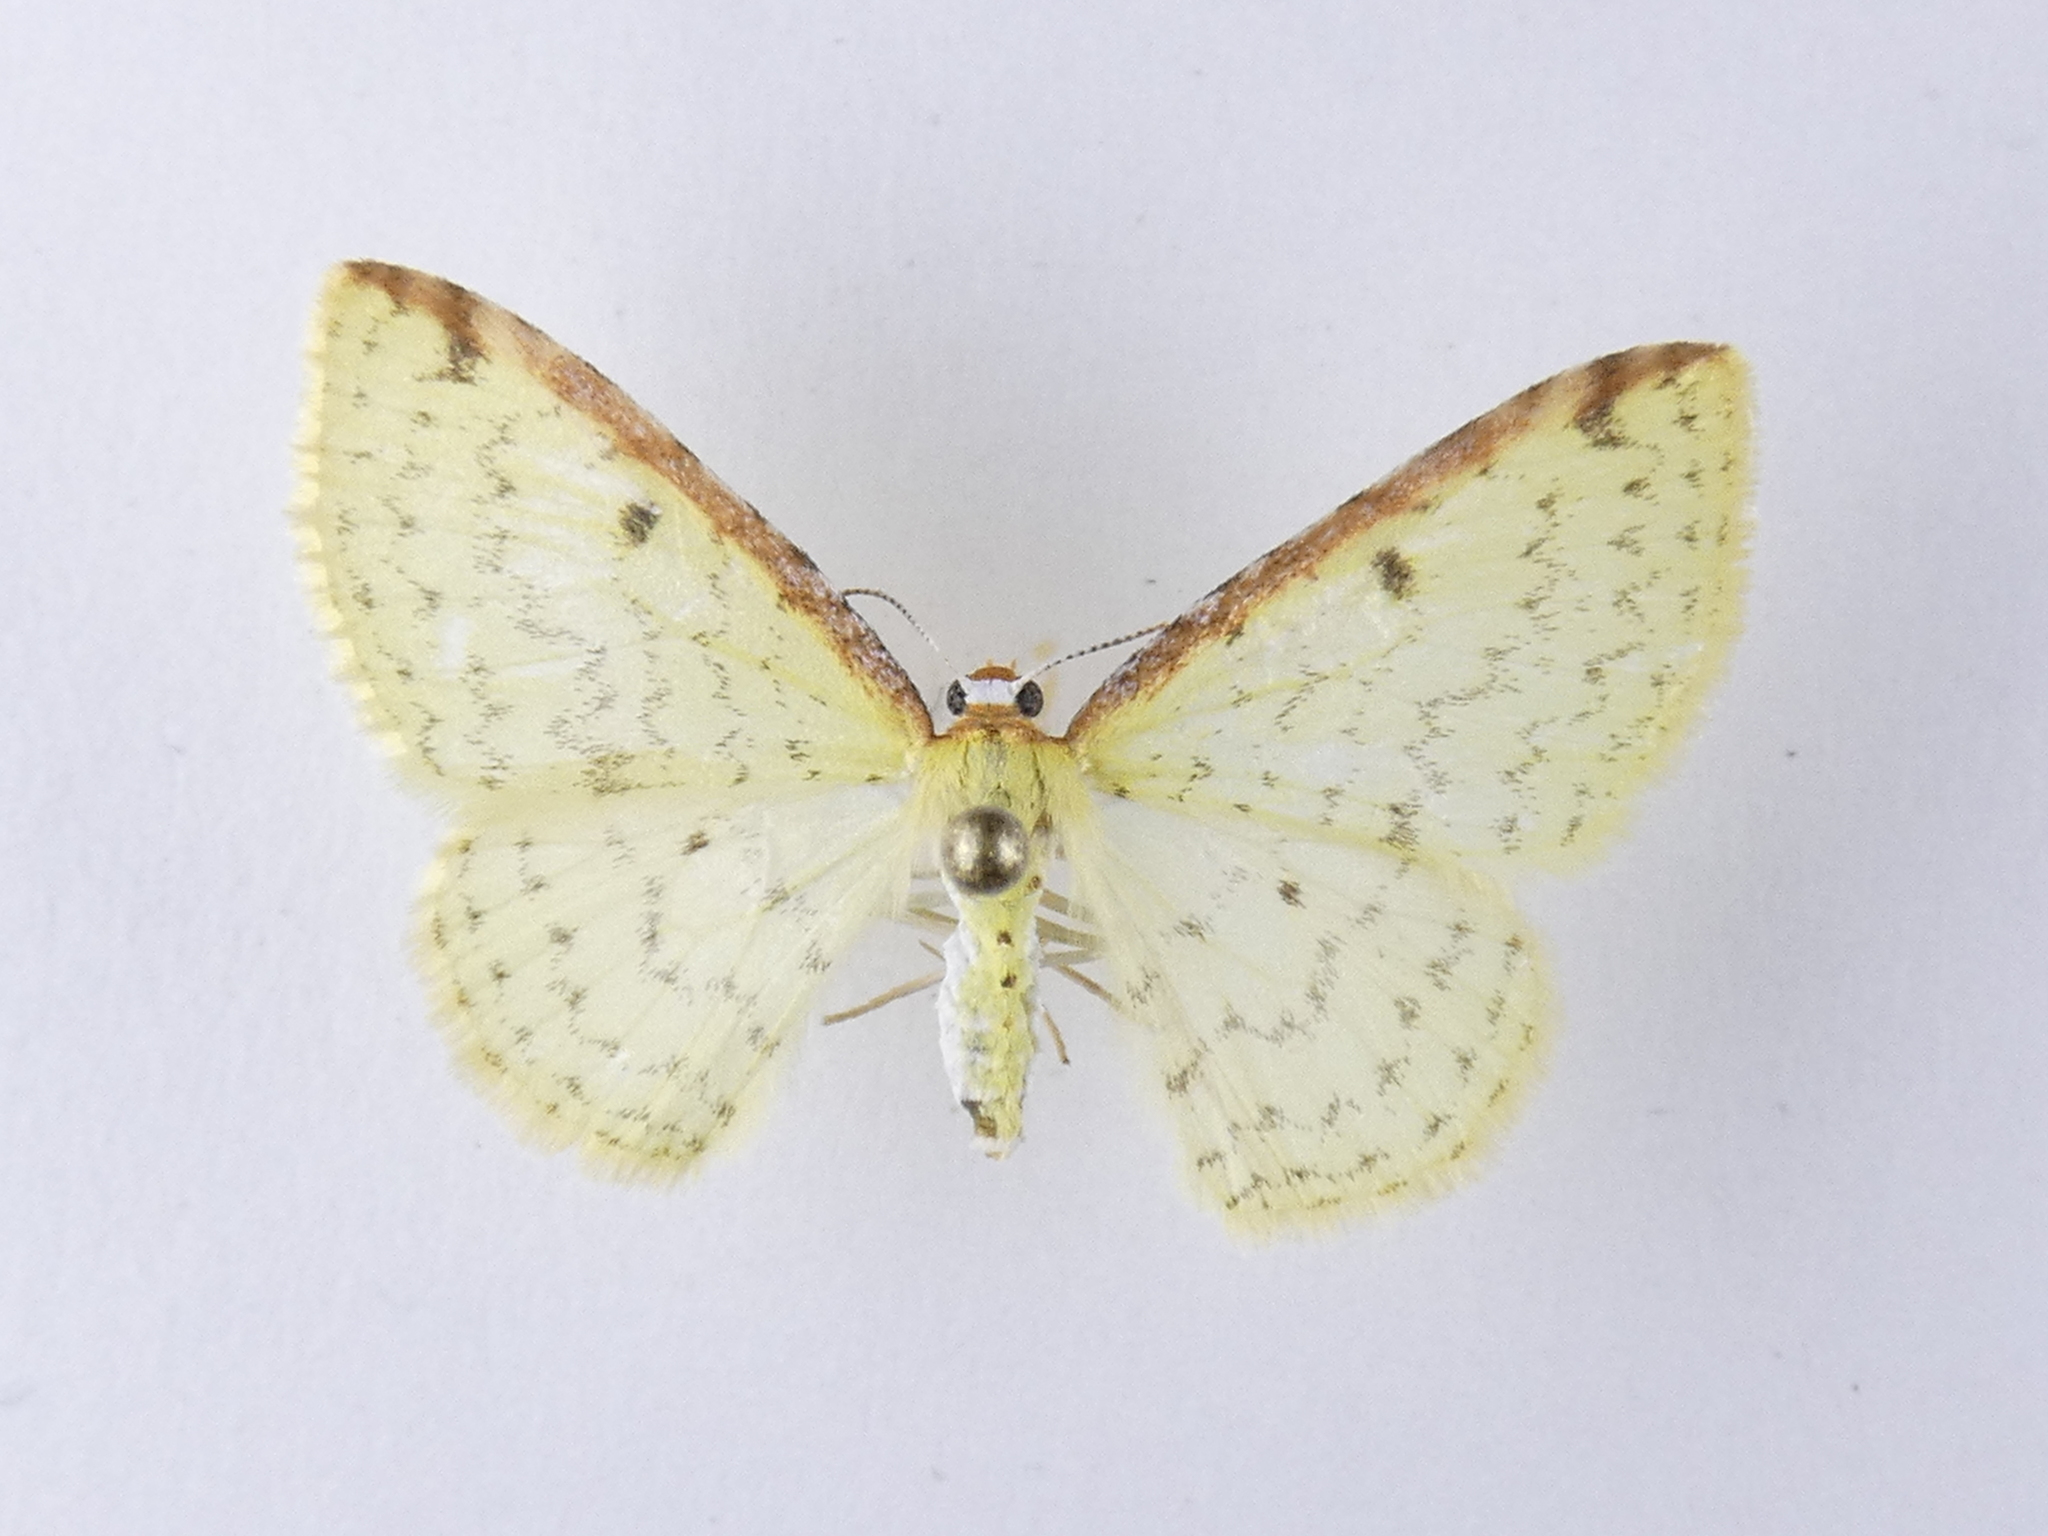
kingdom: Animalia
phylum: Arthropoda
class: Insecta
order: Lepidoptera
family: Geometridae
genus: Epiphryne
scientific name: Epiphryne undosata
